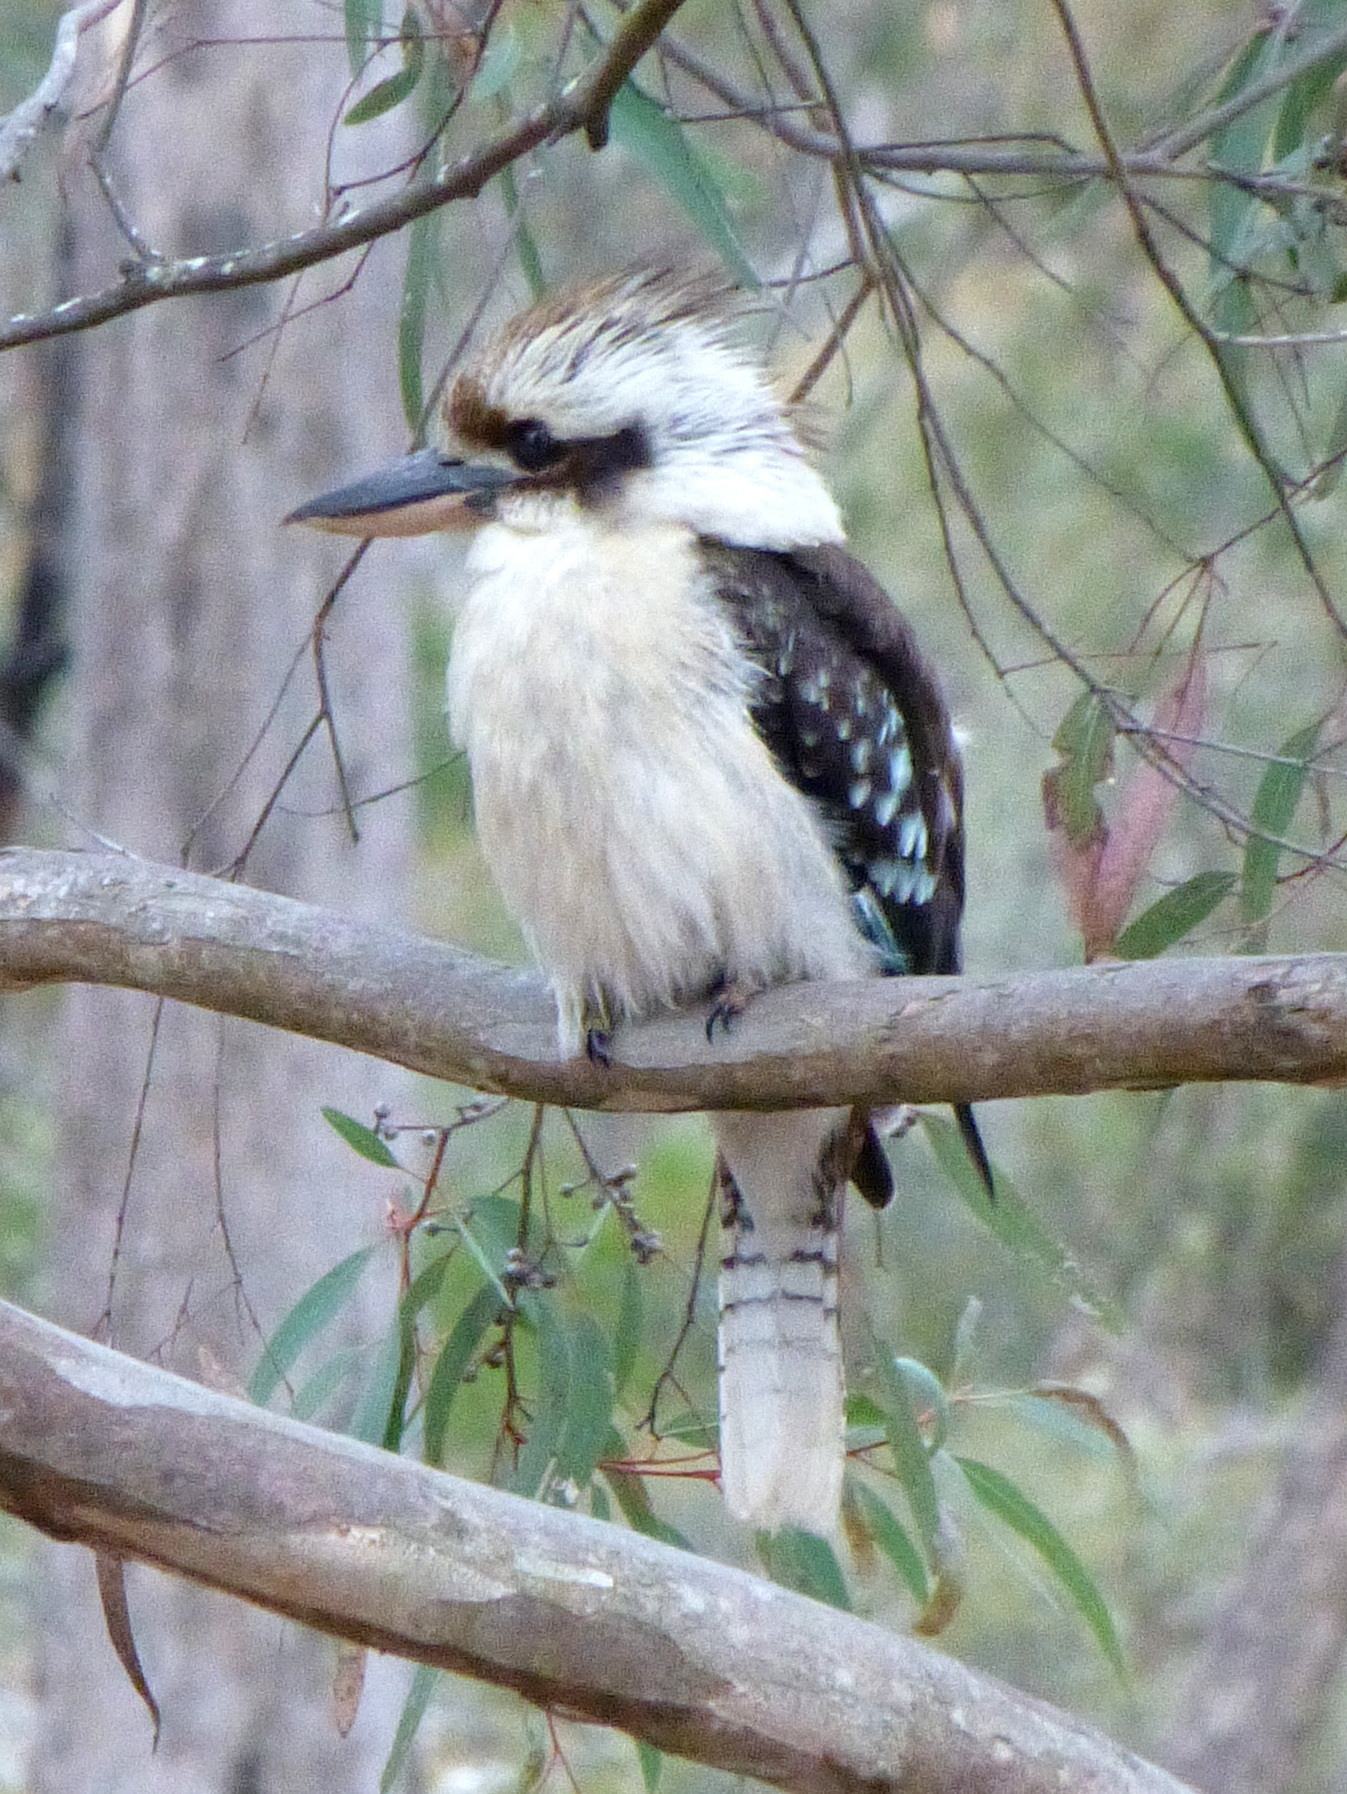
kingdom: Animalia
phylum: Chordata
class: Aves
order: Coraciiformes
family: Alcedinidae
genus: Dacelo
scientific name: Dacelo novaeguineae
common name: Laughing kookaburra
